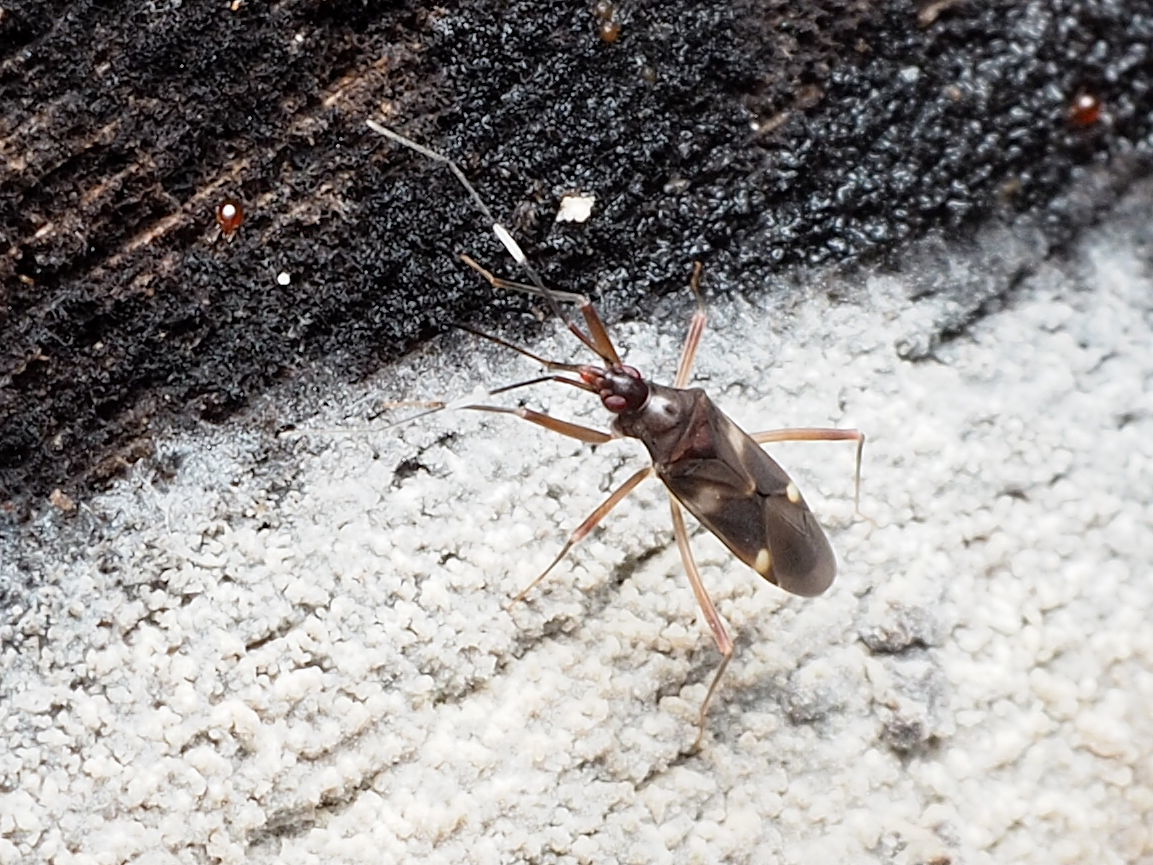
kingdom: Animalia
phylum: Arthropoda
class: Insecta
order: Hemiptera
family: Miridae
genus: Fulvius
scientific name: Fulvius imbecilis
